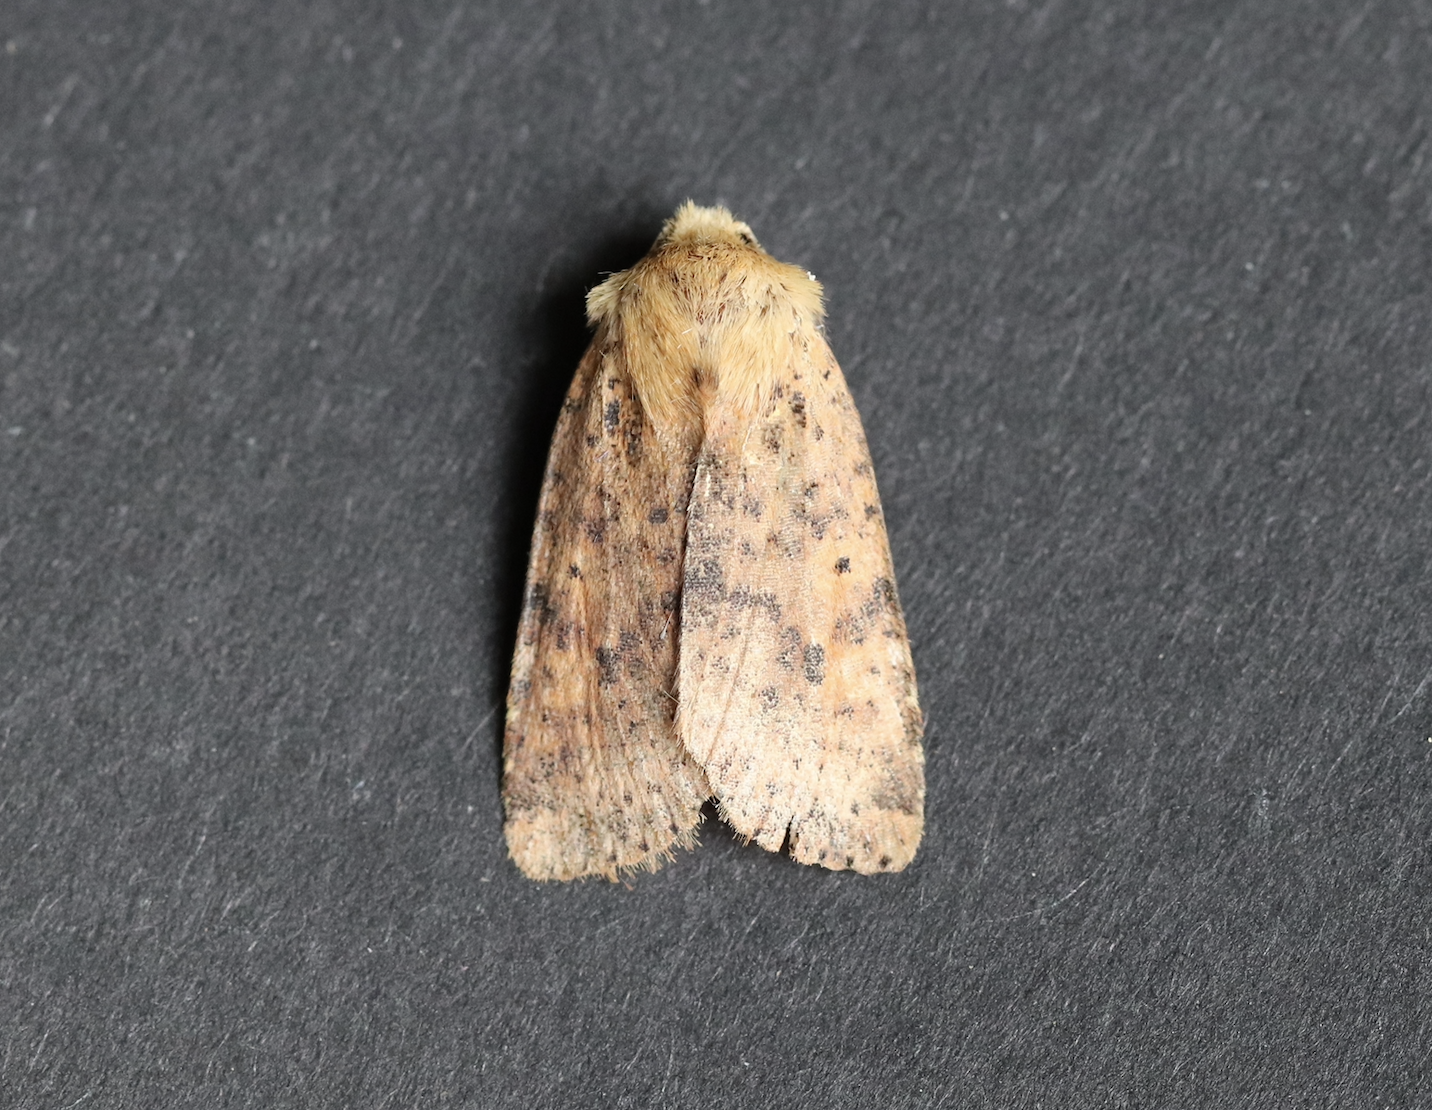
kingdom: Animalia
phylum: Arthropoda
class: Insecta
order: Lepidoptera
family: Noctuidae
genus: Conistra
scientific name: Conistra rubiginea
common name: Dotted chestnut
